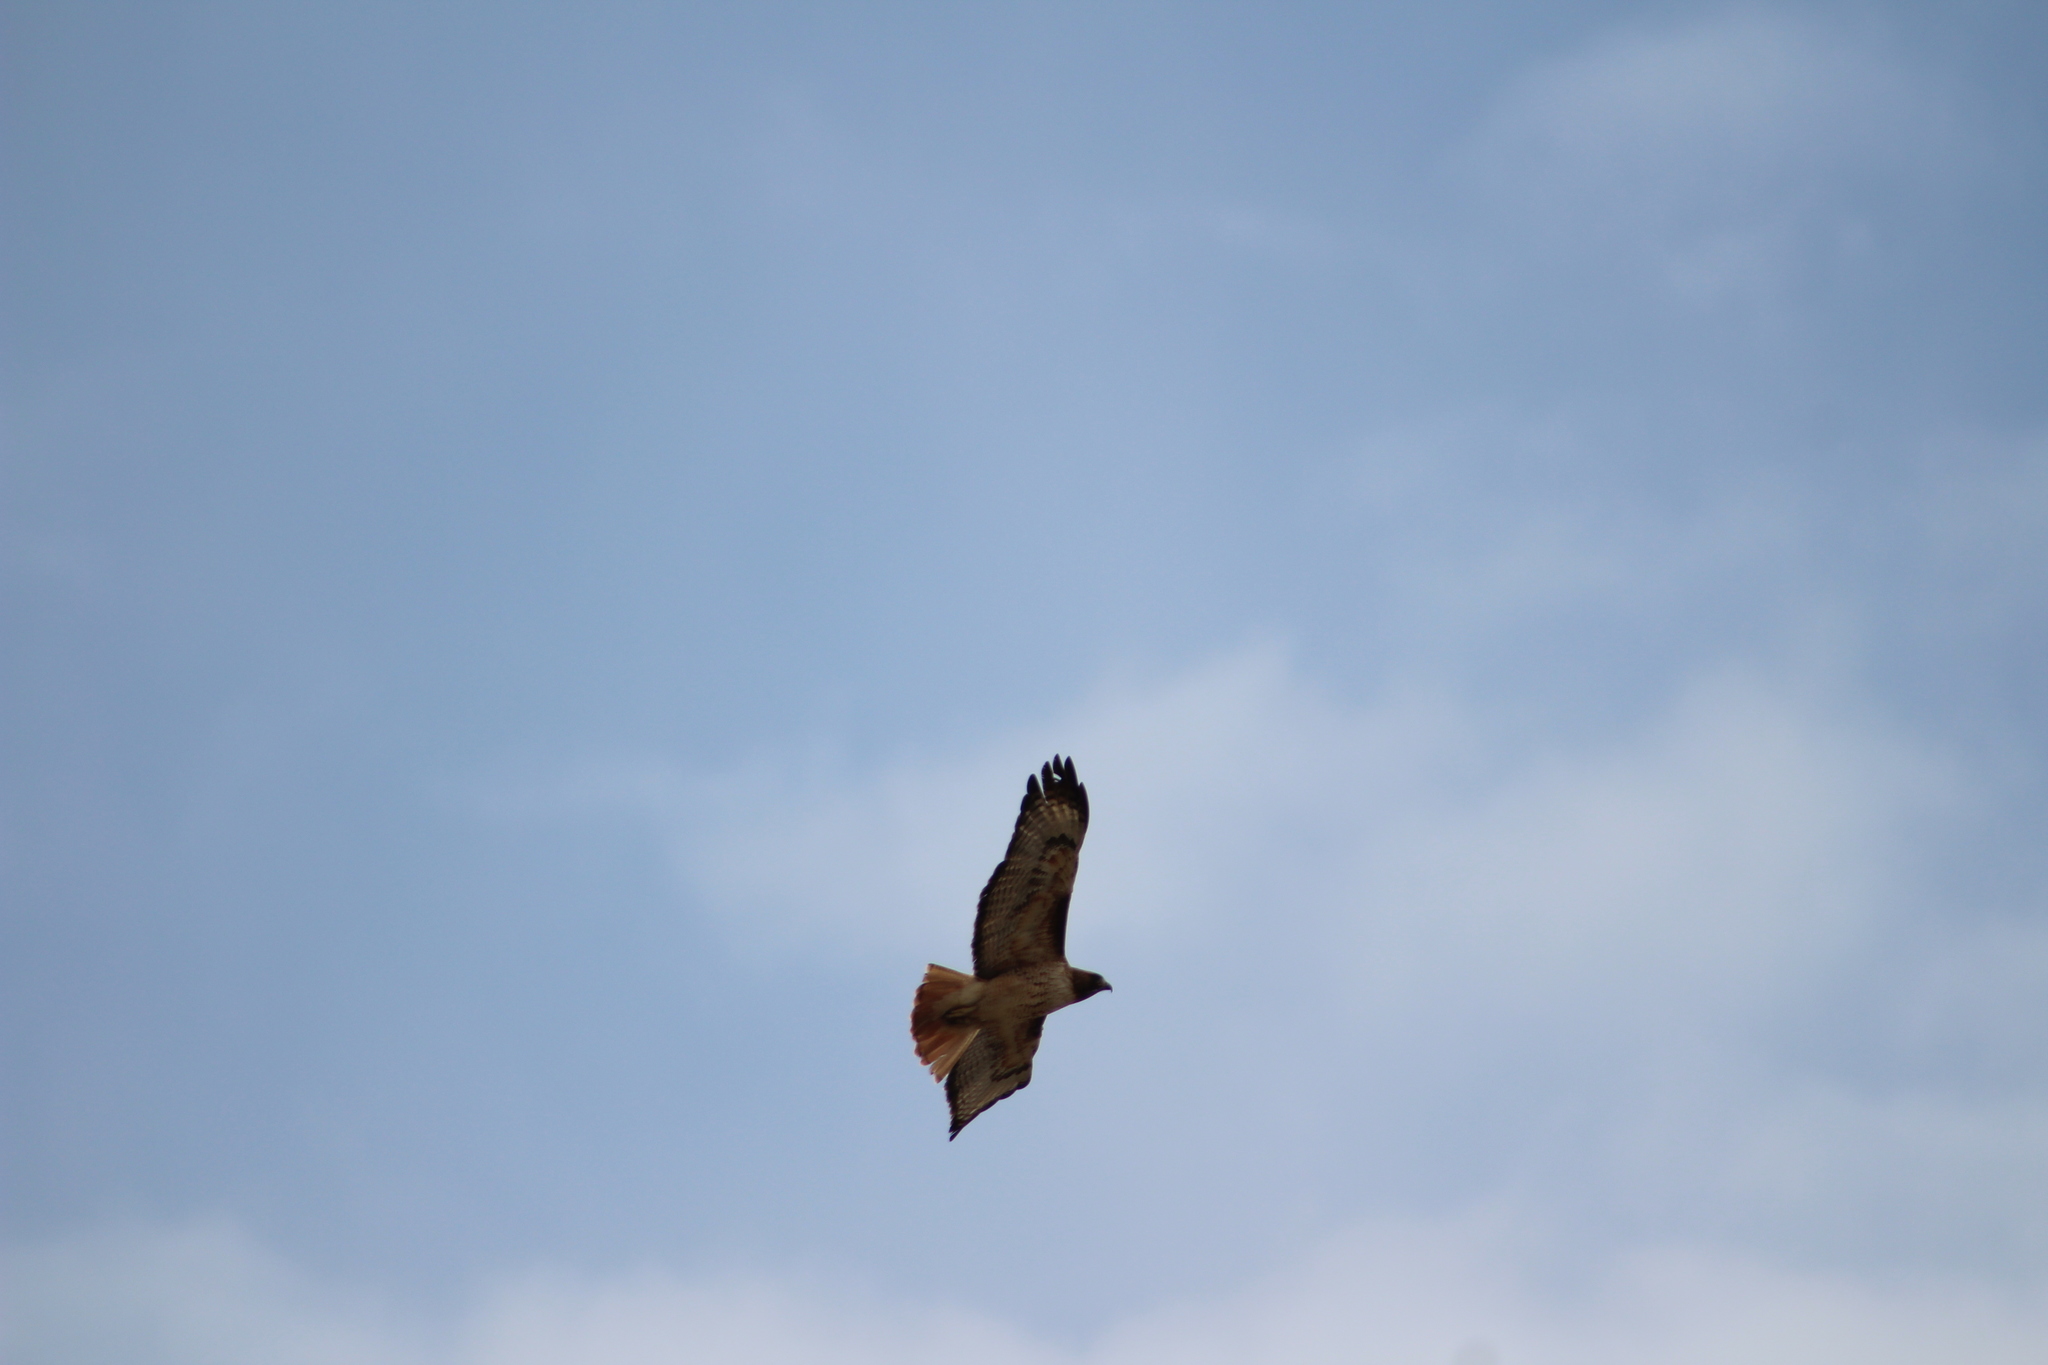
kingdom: Animalia
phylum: Chordata
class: Aves
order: Accipitriformes
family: Accipitridae
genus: Buteo
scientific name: Buteo jamaicensis
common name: Red-tailed hawk
